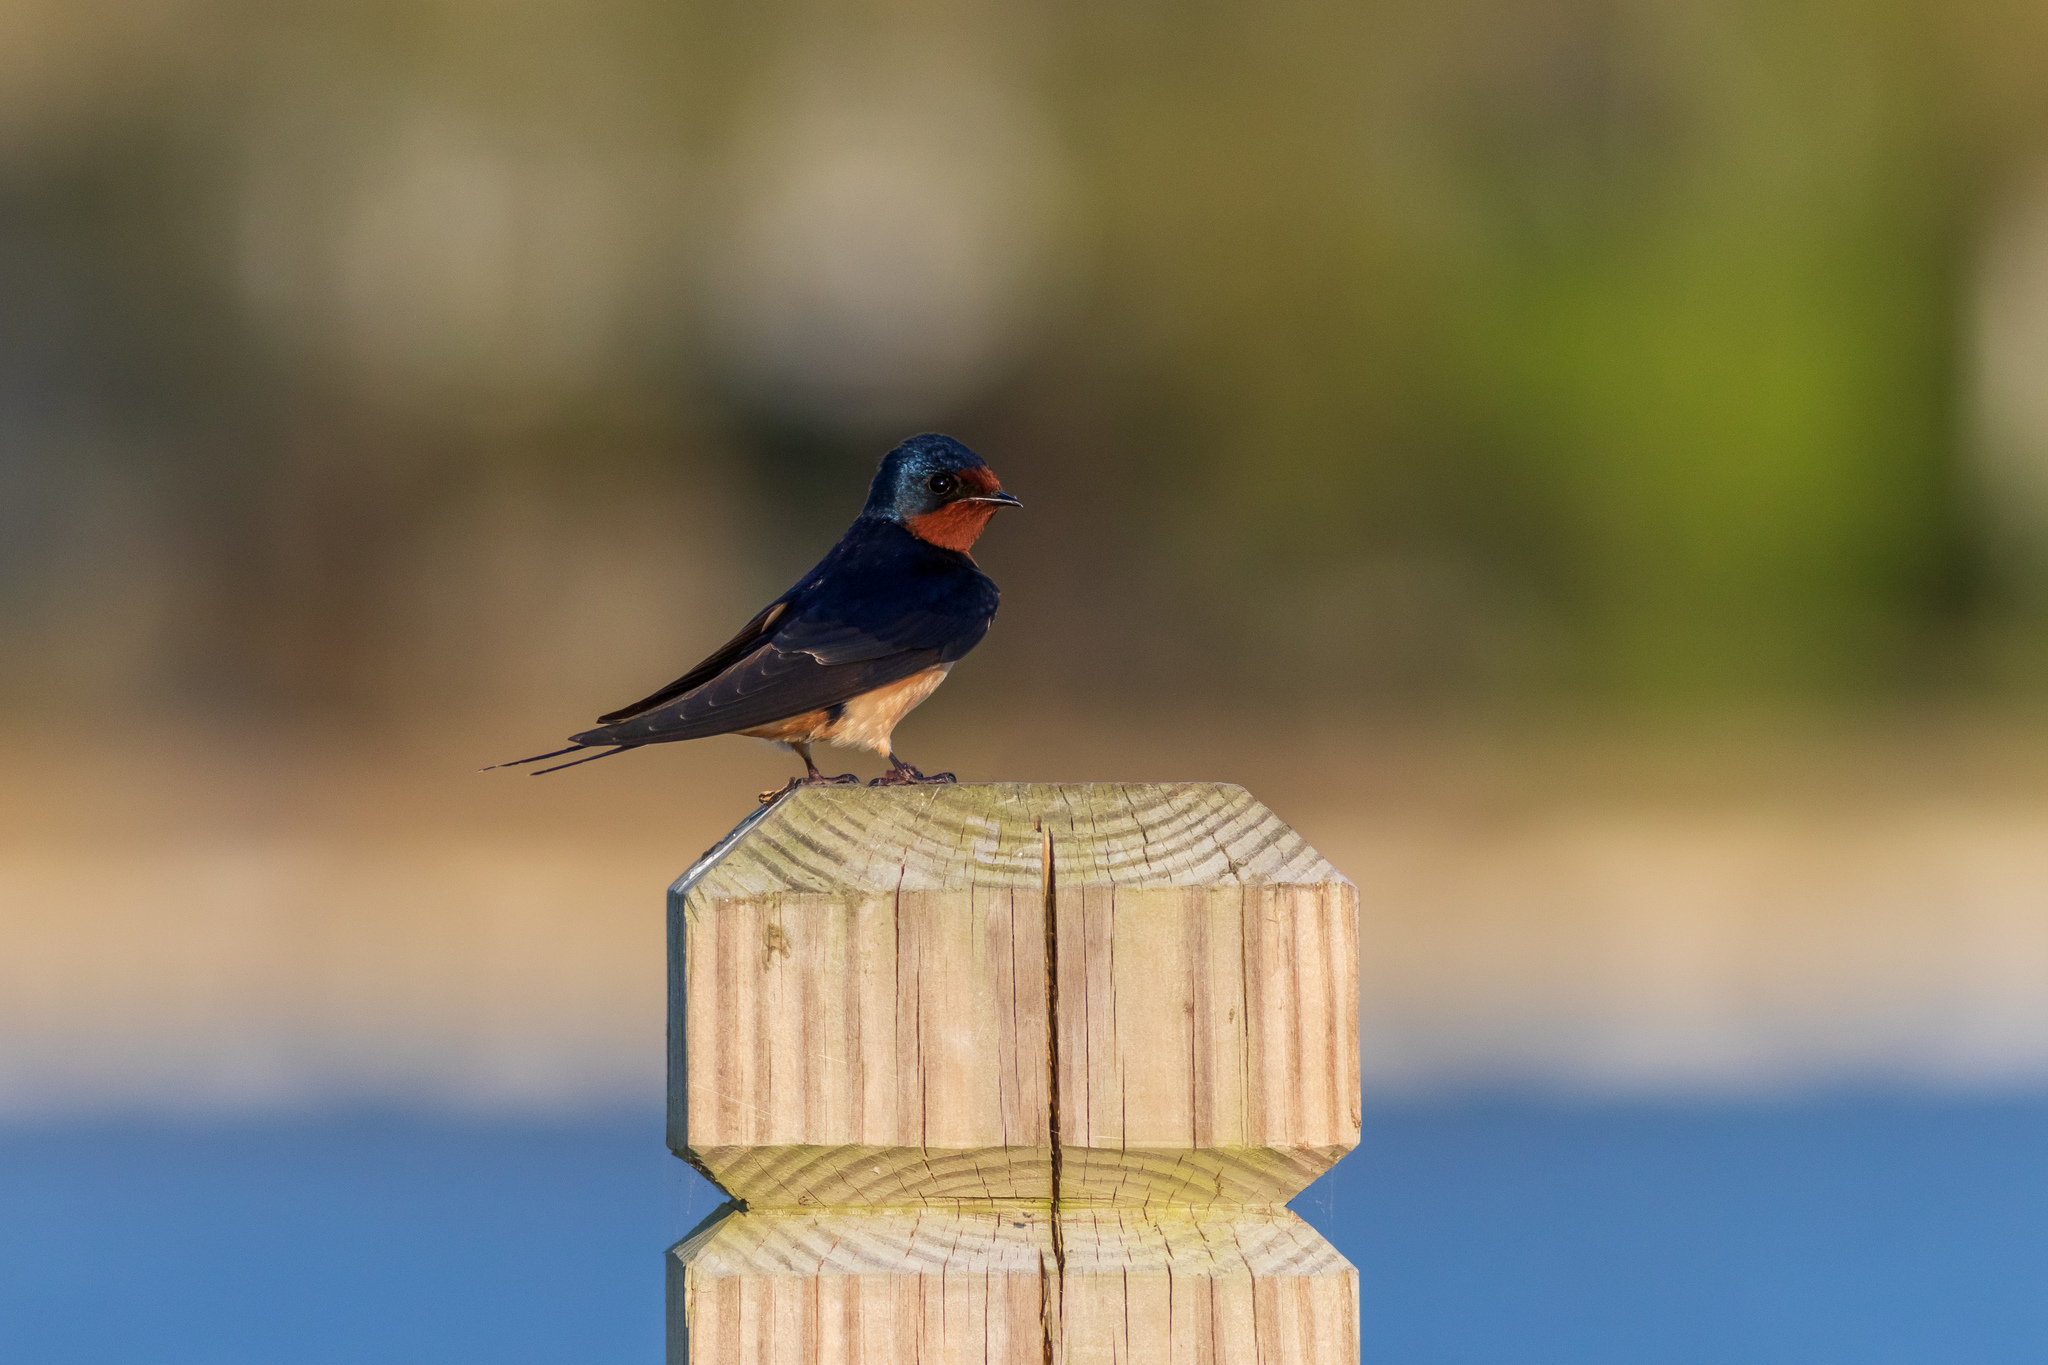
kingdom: Animalia
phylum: Chordata
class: Aves
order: Passeriformes
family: Hirundinidae
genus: Hirundo
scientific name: Hirundo rustica
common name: Barn swallow
